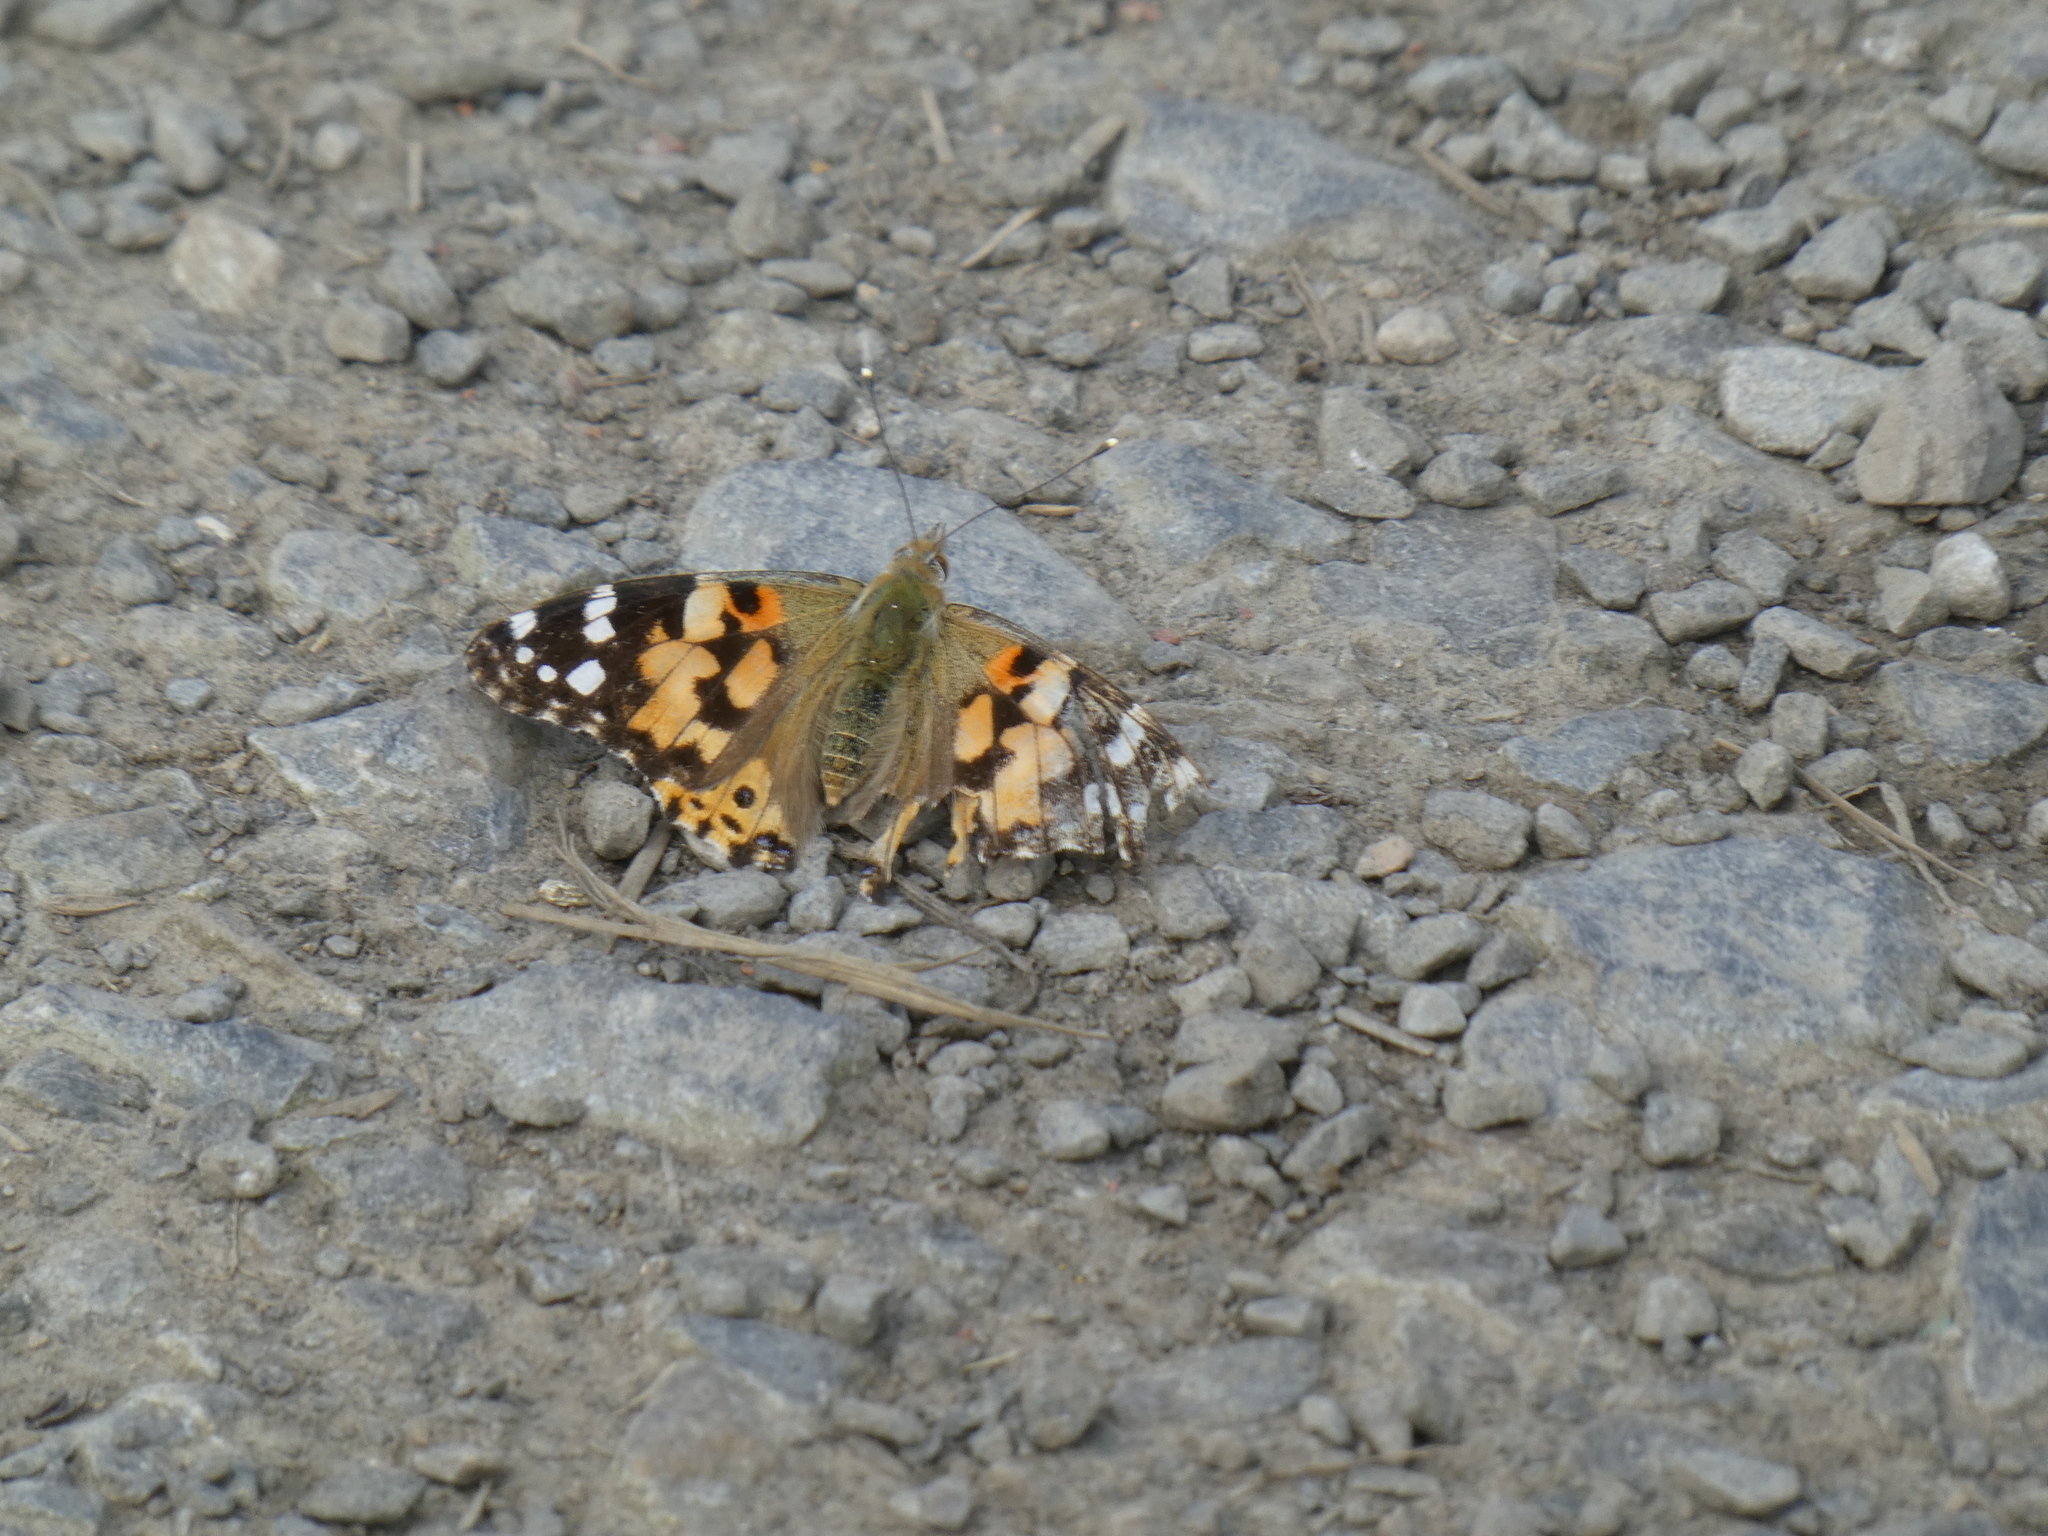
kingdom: Animalia
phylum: Arthropoda
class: Insecta
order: Lepidoptera
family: Nymphalidae
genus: Vanessa
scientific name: Vanessa cardui
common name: Painted lady
